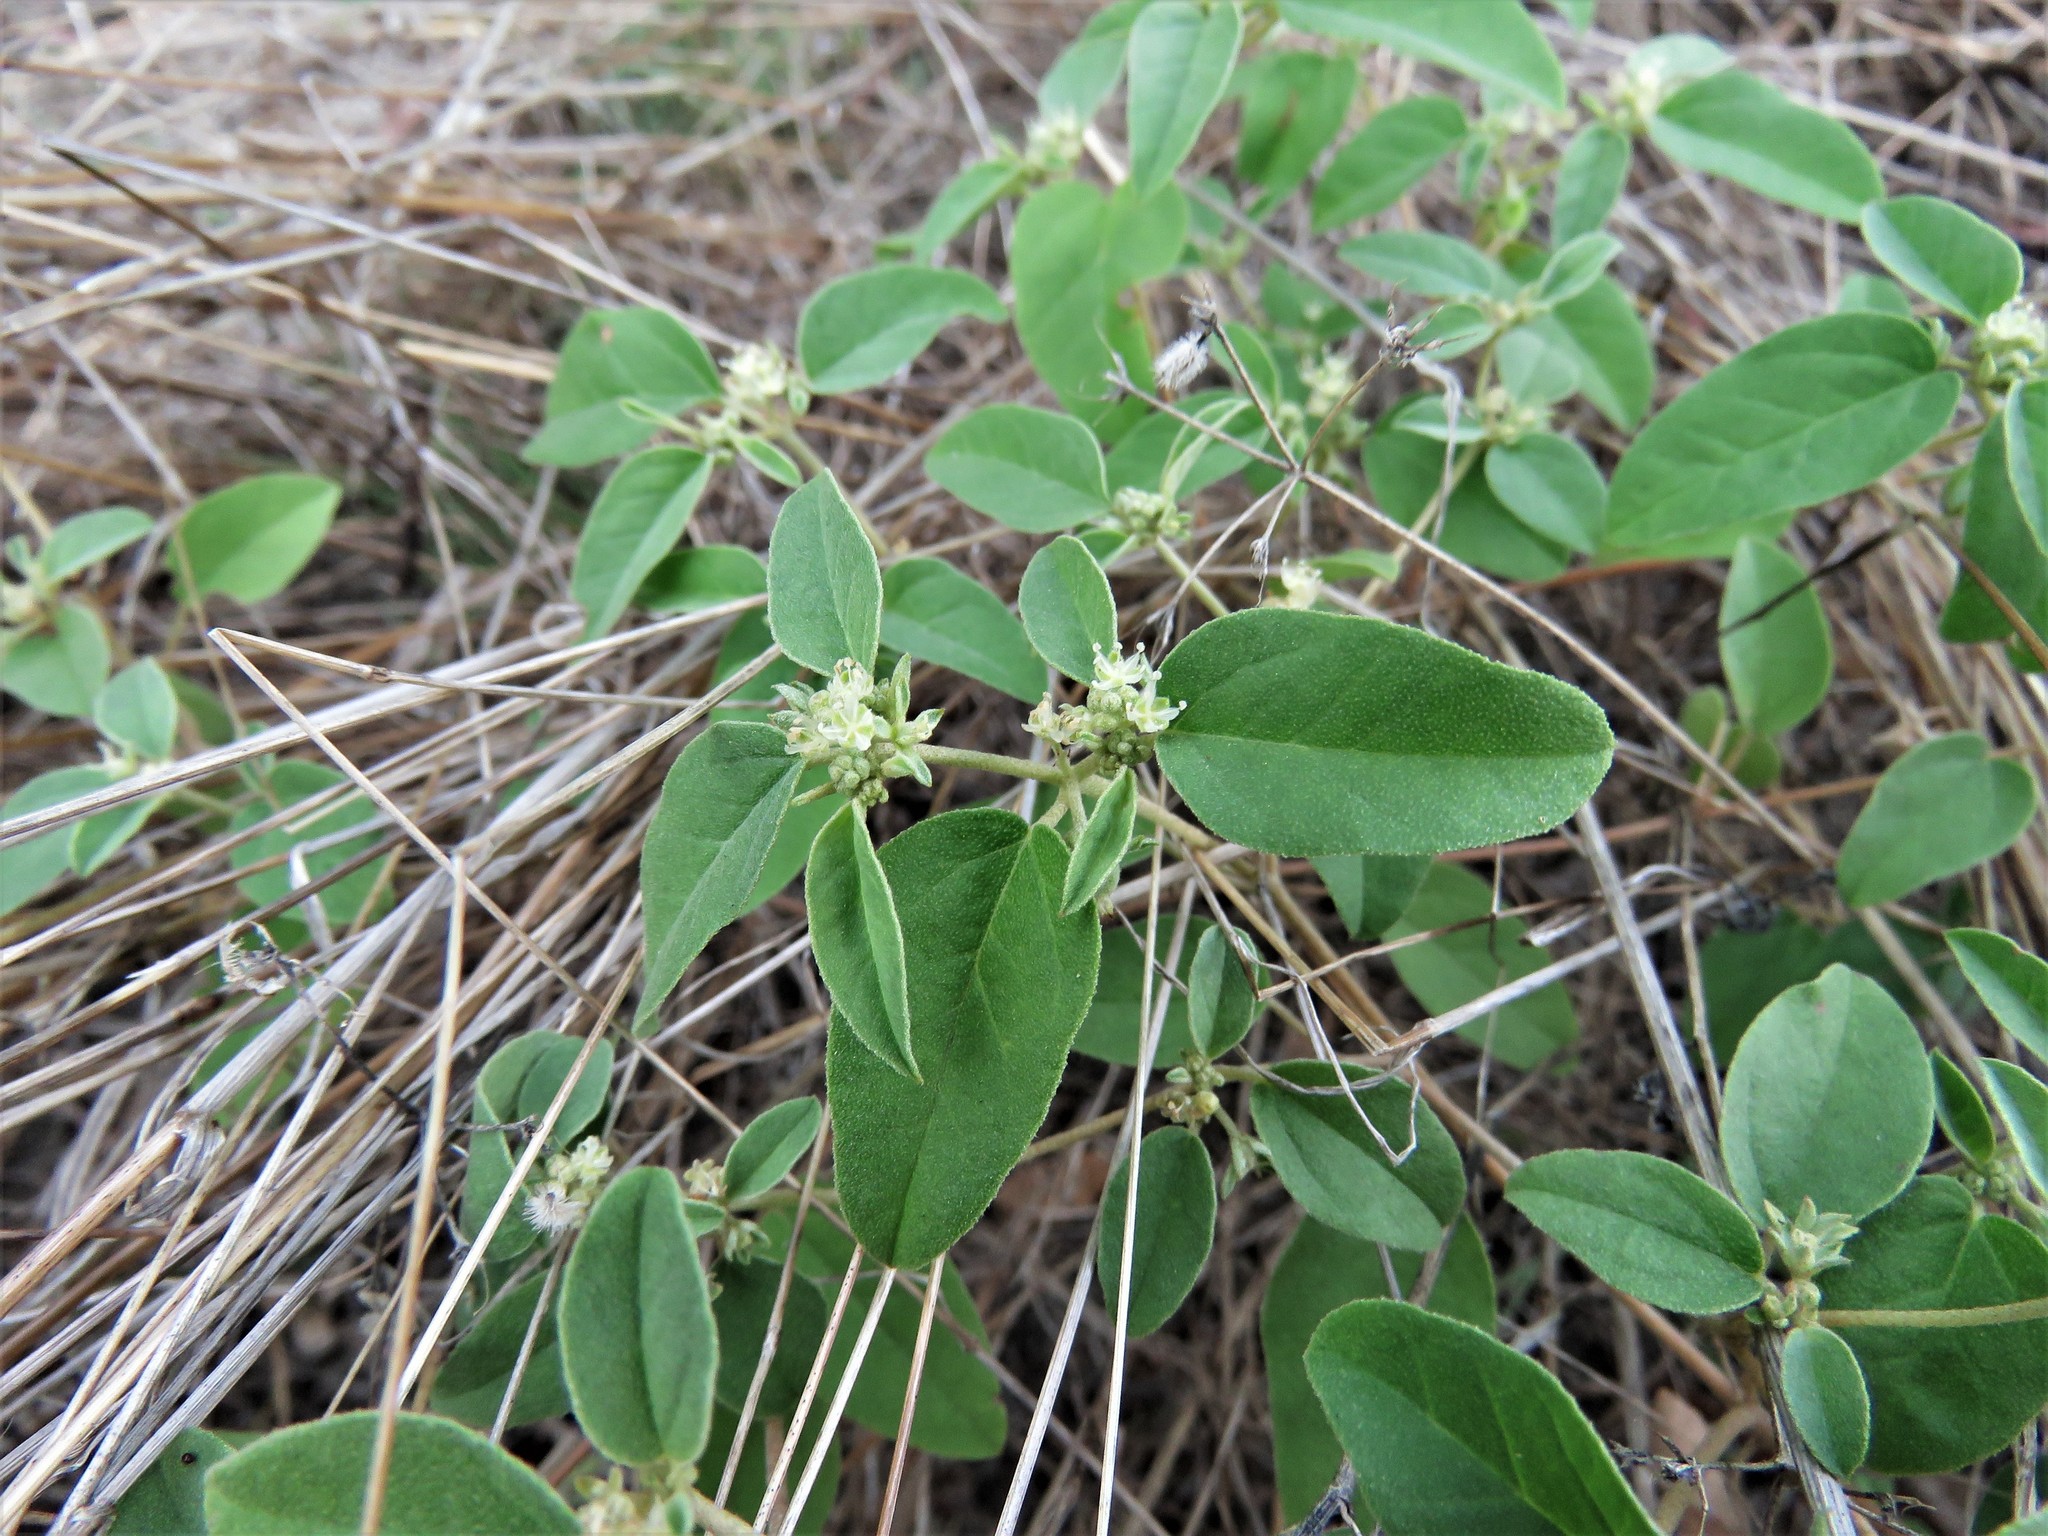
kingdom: Plantae
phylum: Tracheophyta
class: Magnoliopsida
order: Malpighiales
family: Euphorbiaceae
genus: Croton
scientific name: Croton monanthogynus
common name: One-seed croton
